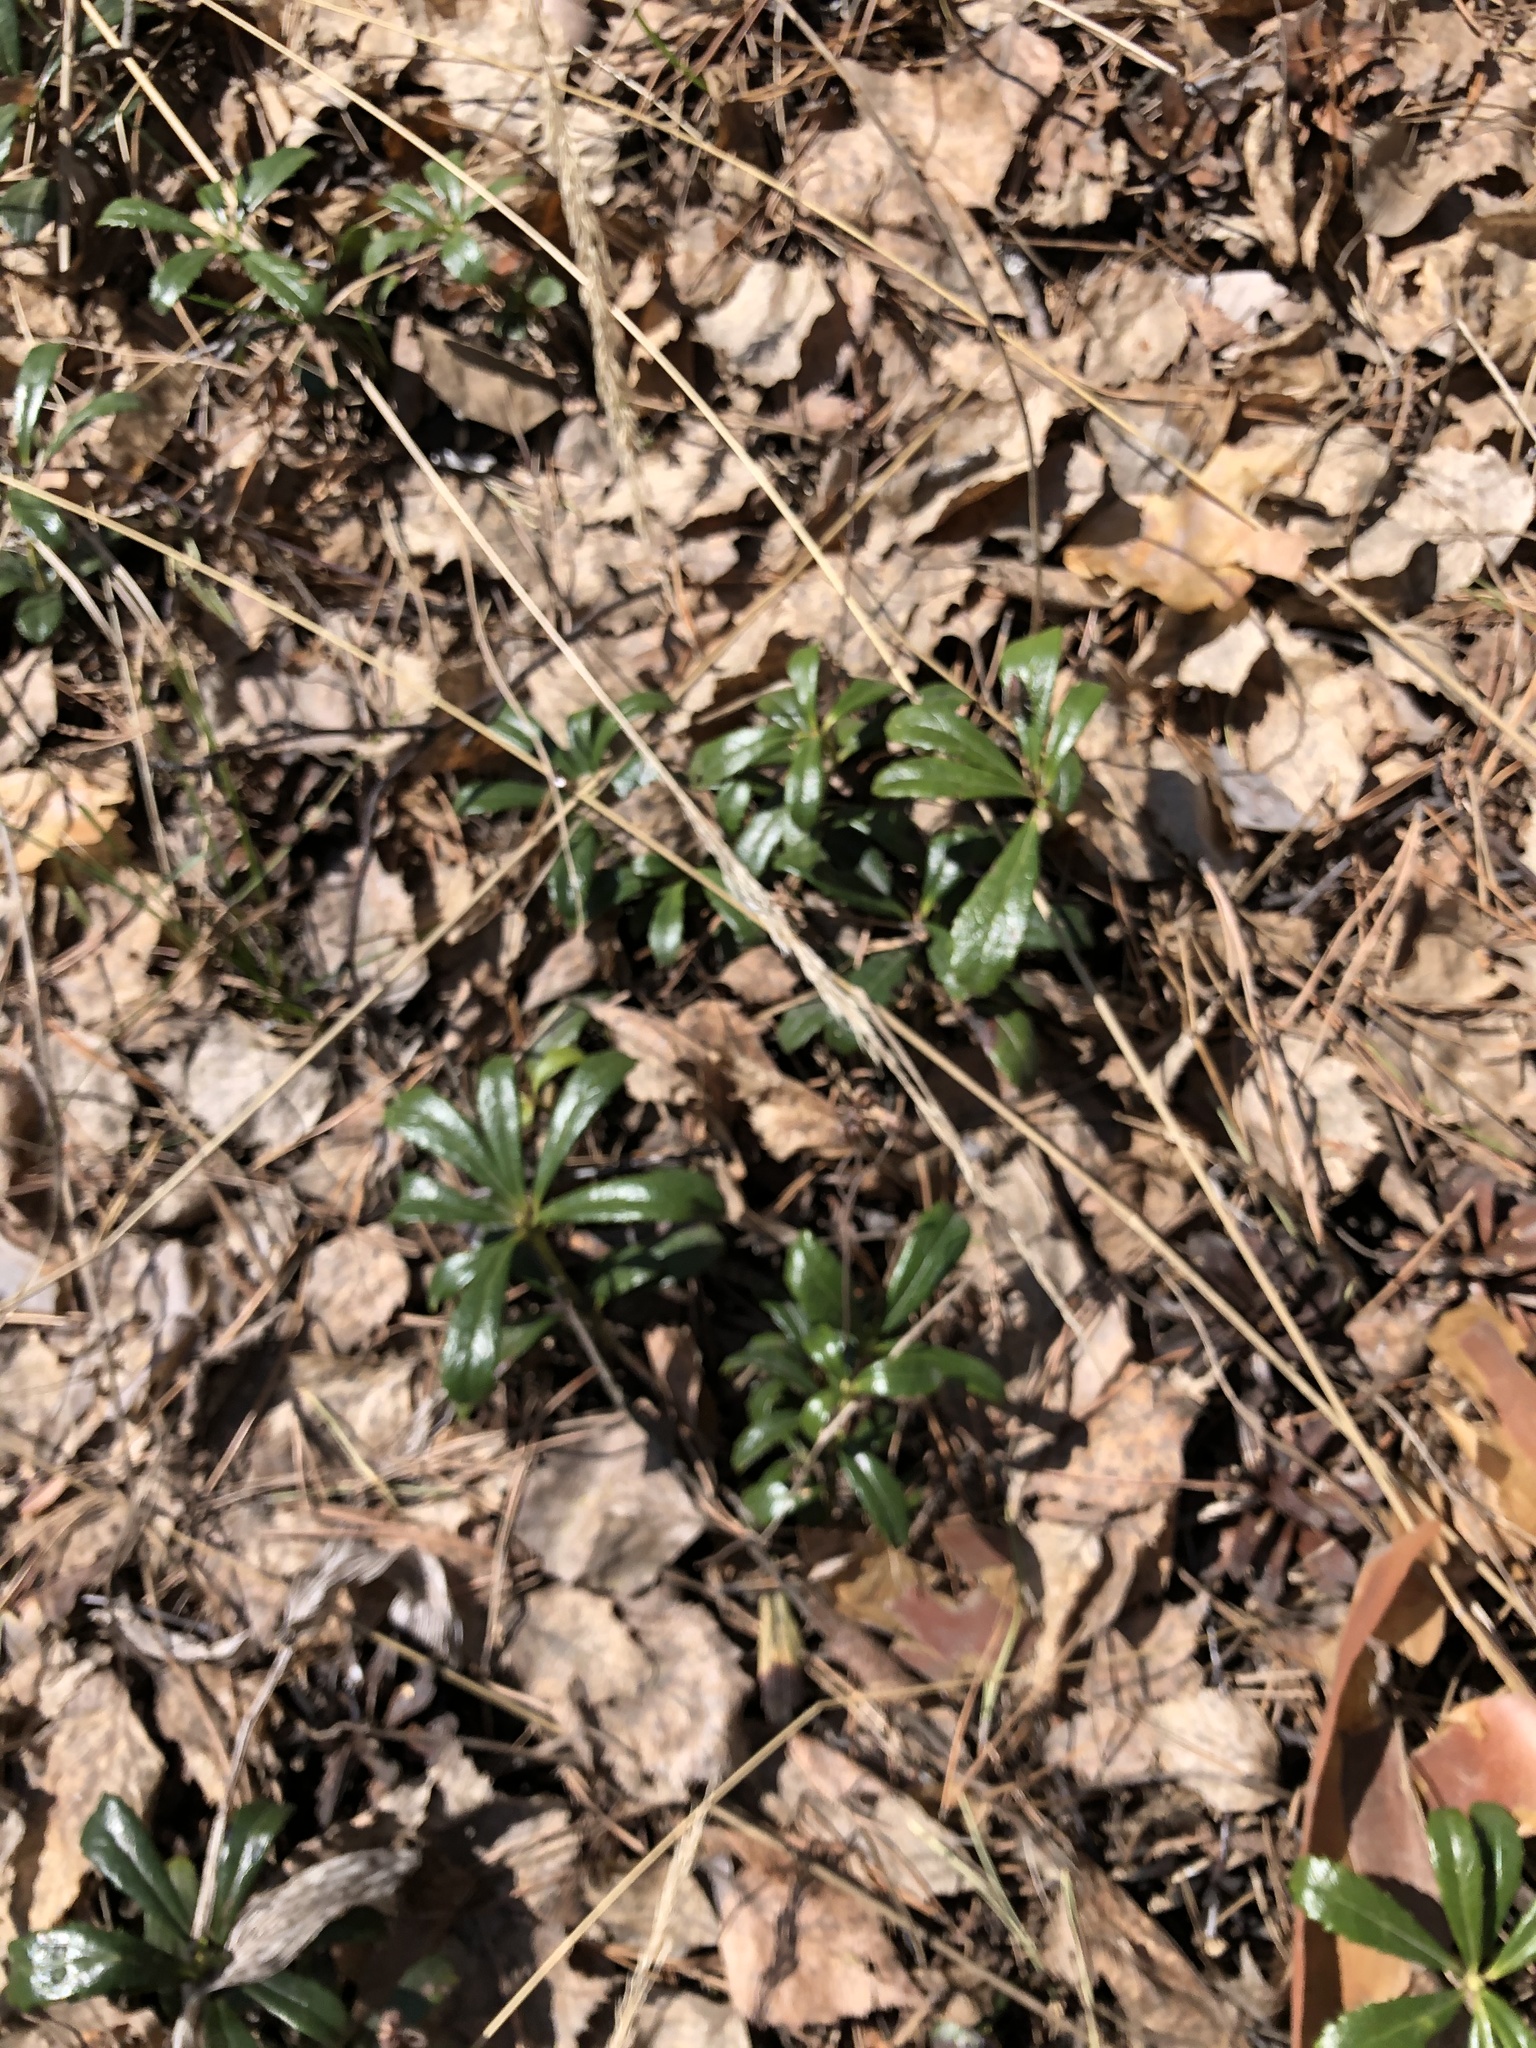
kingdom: Plantae
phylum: Tracheophyta
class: Magnoliopsida
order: Ericales
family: Ericaceae
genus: Chimaphila
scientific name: Chimaphila umbellata
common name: Pipsissewa
